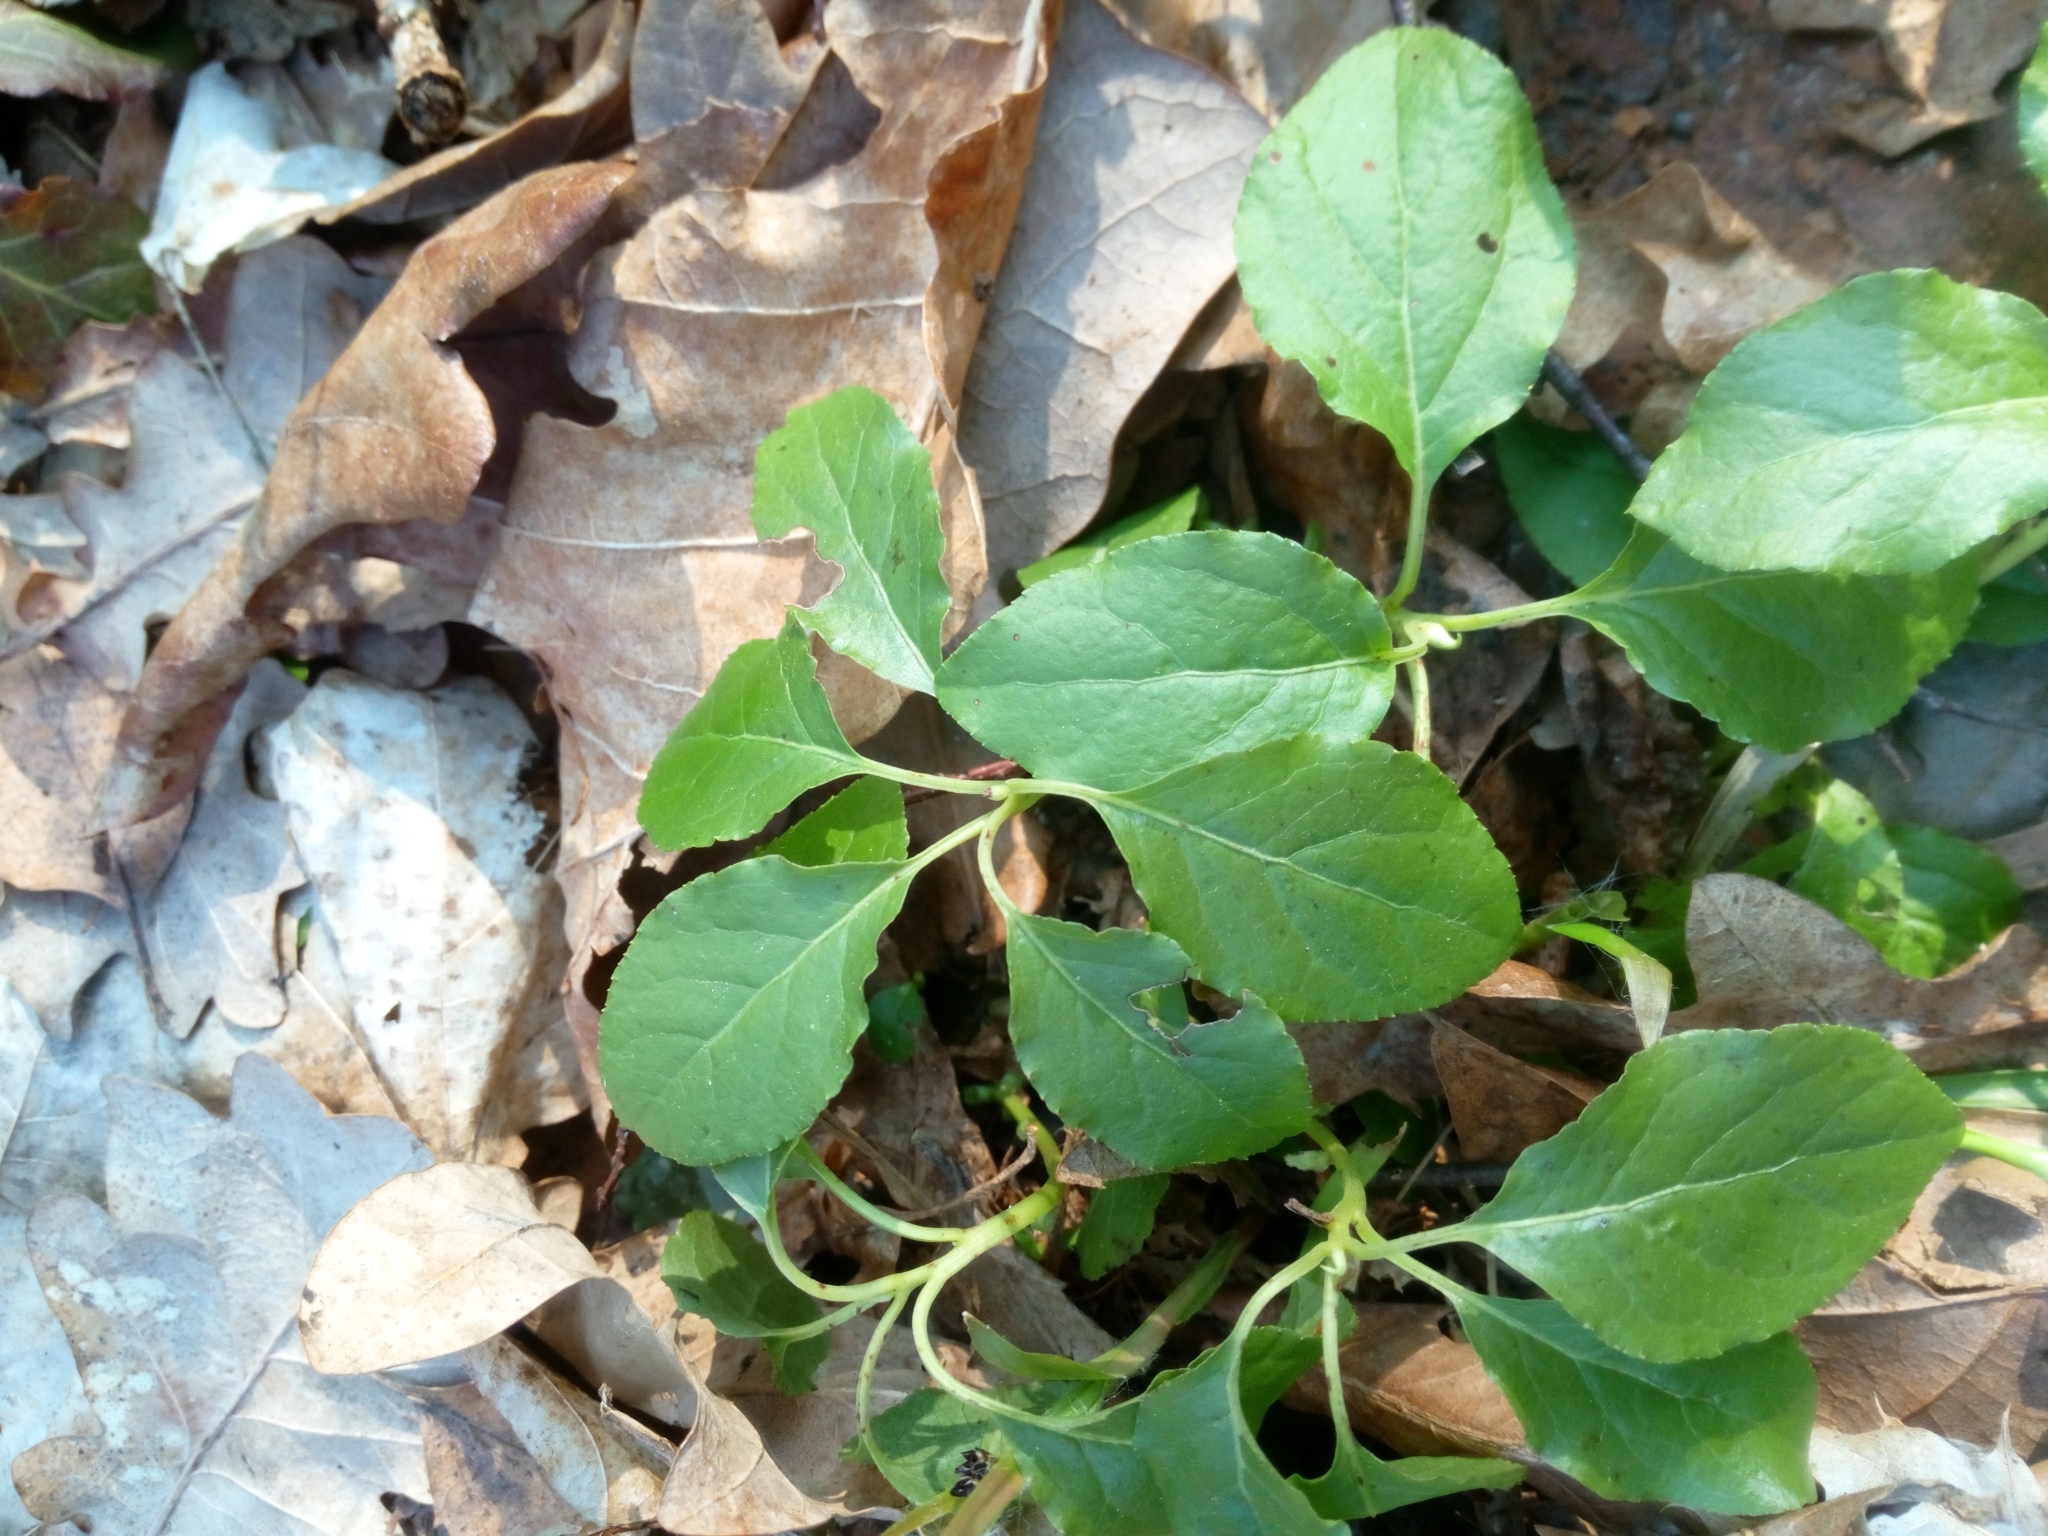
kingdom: Plantae
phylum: Tracheophyta
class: Magnoliopsida
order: Ericales
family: Ericaceae
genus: Orthilia
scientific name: Orthilia secunda
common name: One-sided orthilia
